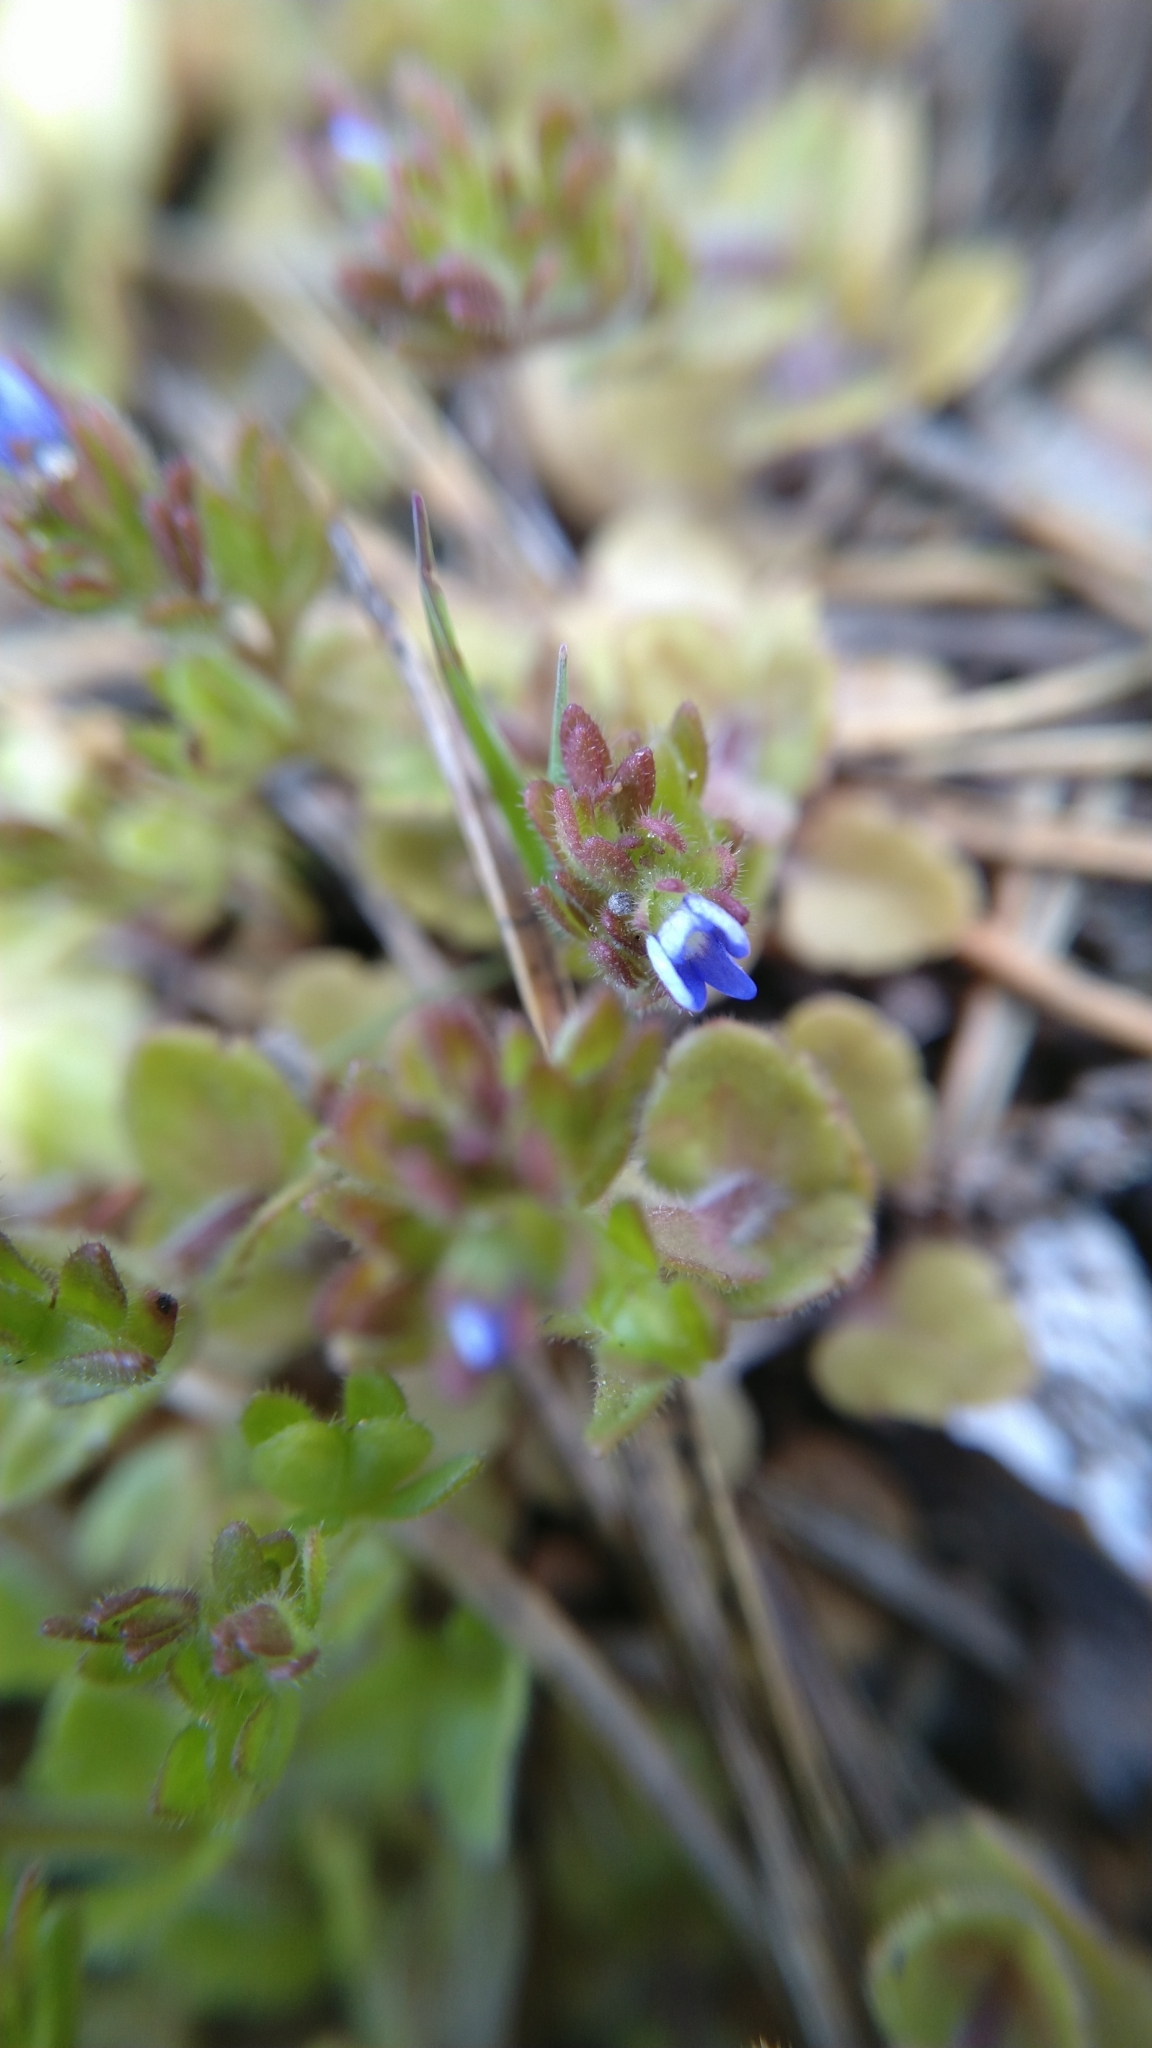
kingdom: Plantae
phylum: Tracheophyta
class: Magnoliopsida
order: Lamiales
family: Plantaginaceae
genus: Veronica
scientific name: Veronica arvensis
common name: Corn speedwell
